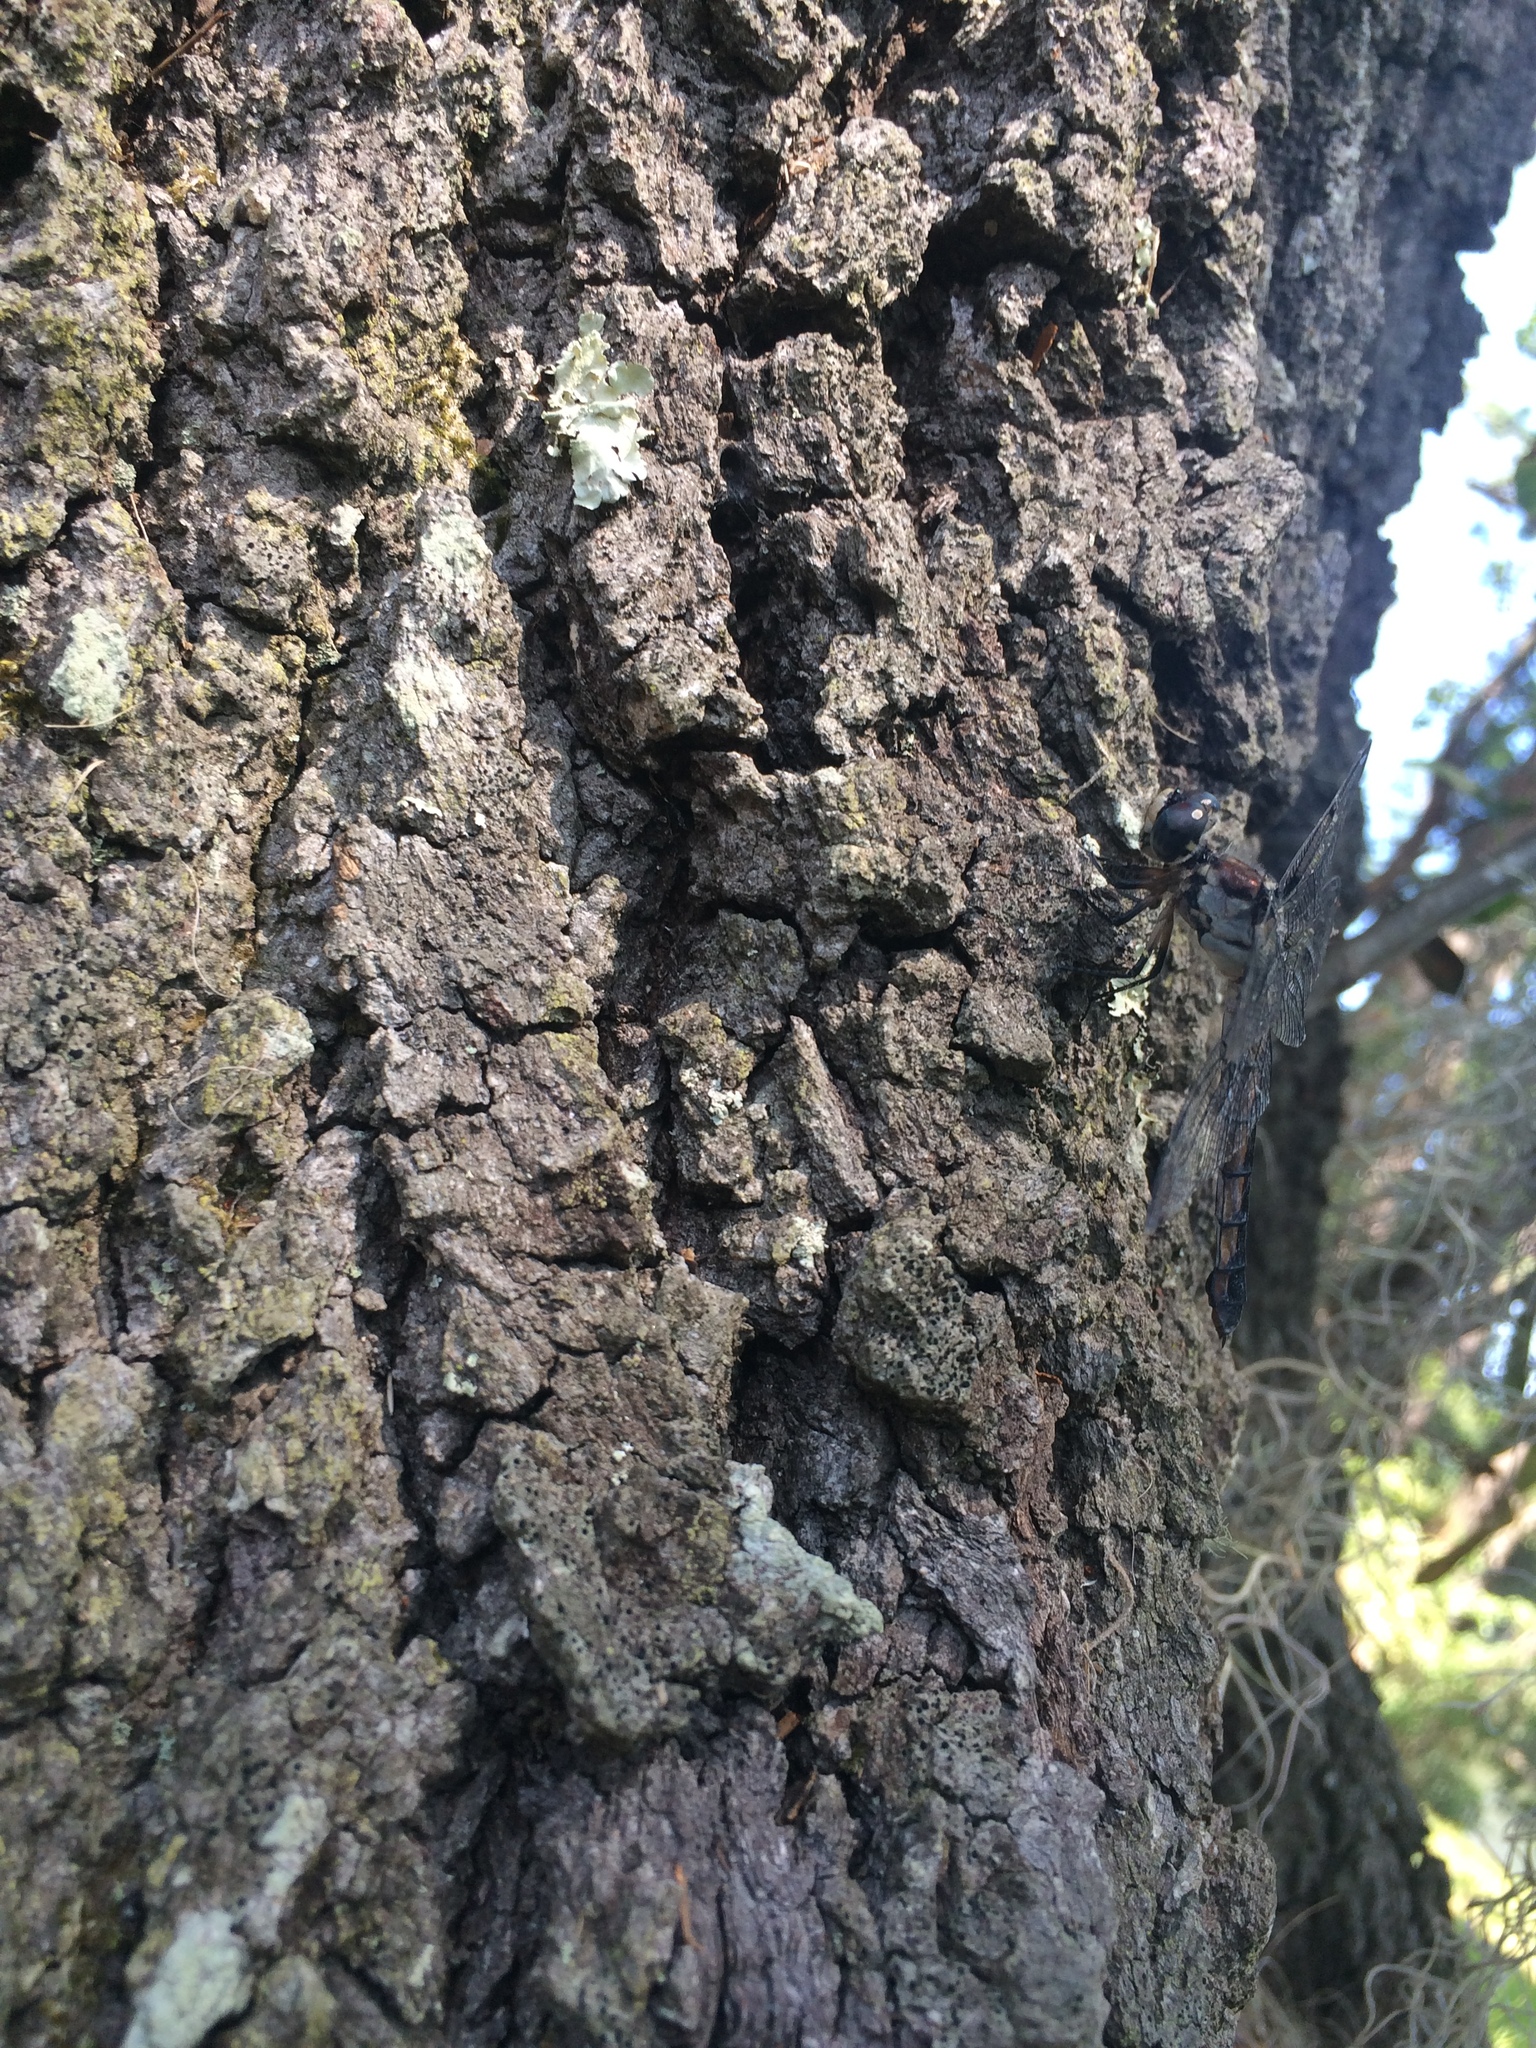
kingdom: Animalia
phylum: Arthropoda
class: Insecta
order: Odonata
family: Libellulidae
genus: Libellula
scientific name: Libellula vibrans
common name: Great blue skimmer
